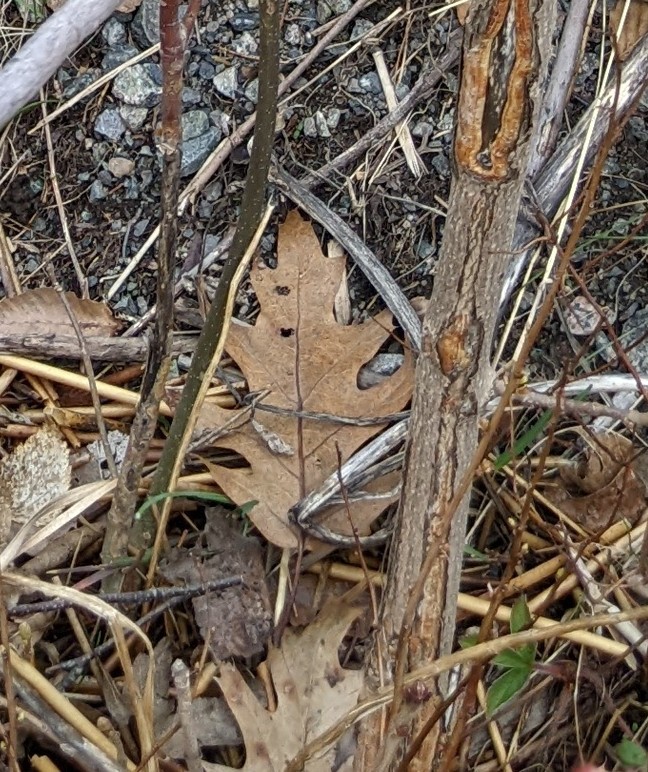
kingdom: Plantae
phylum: Tracheophyta
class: Magnoliopsida
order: Fagales
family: Fagaceae
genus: Quercus
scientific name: Quercus rubra
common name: Red oak
